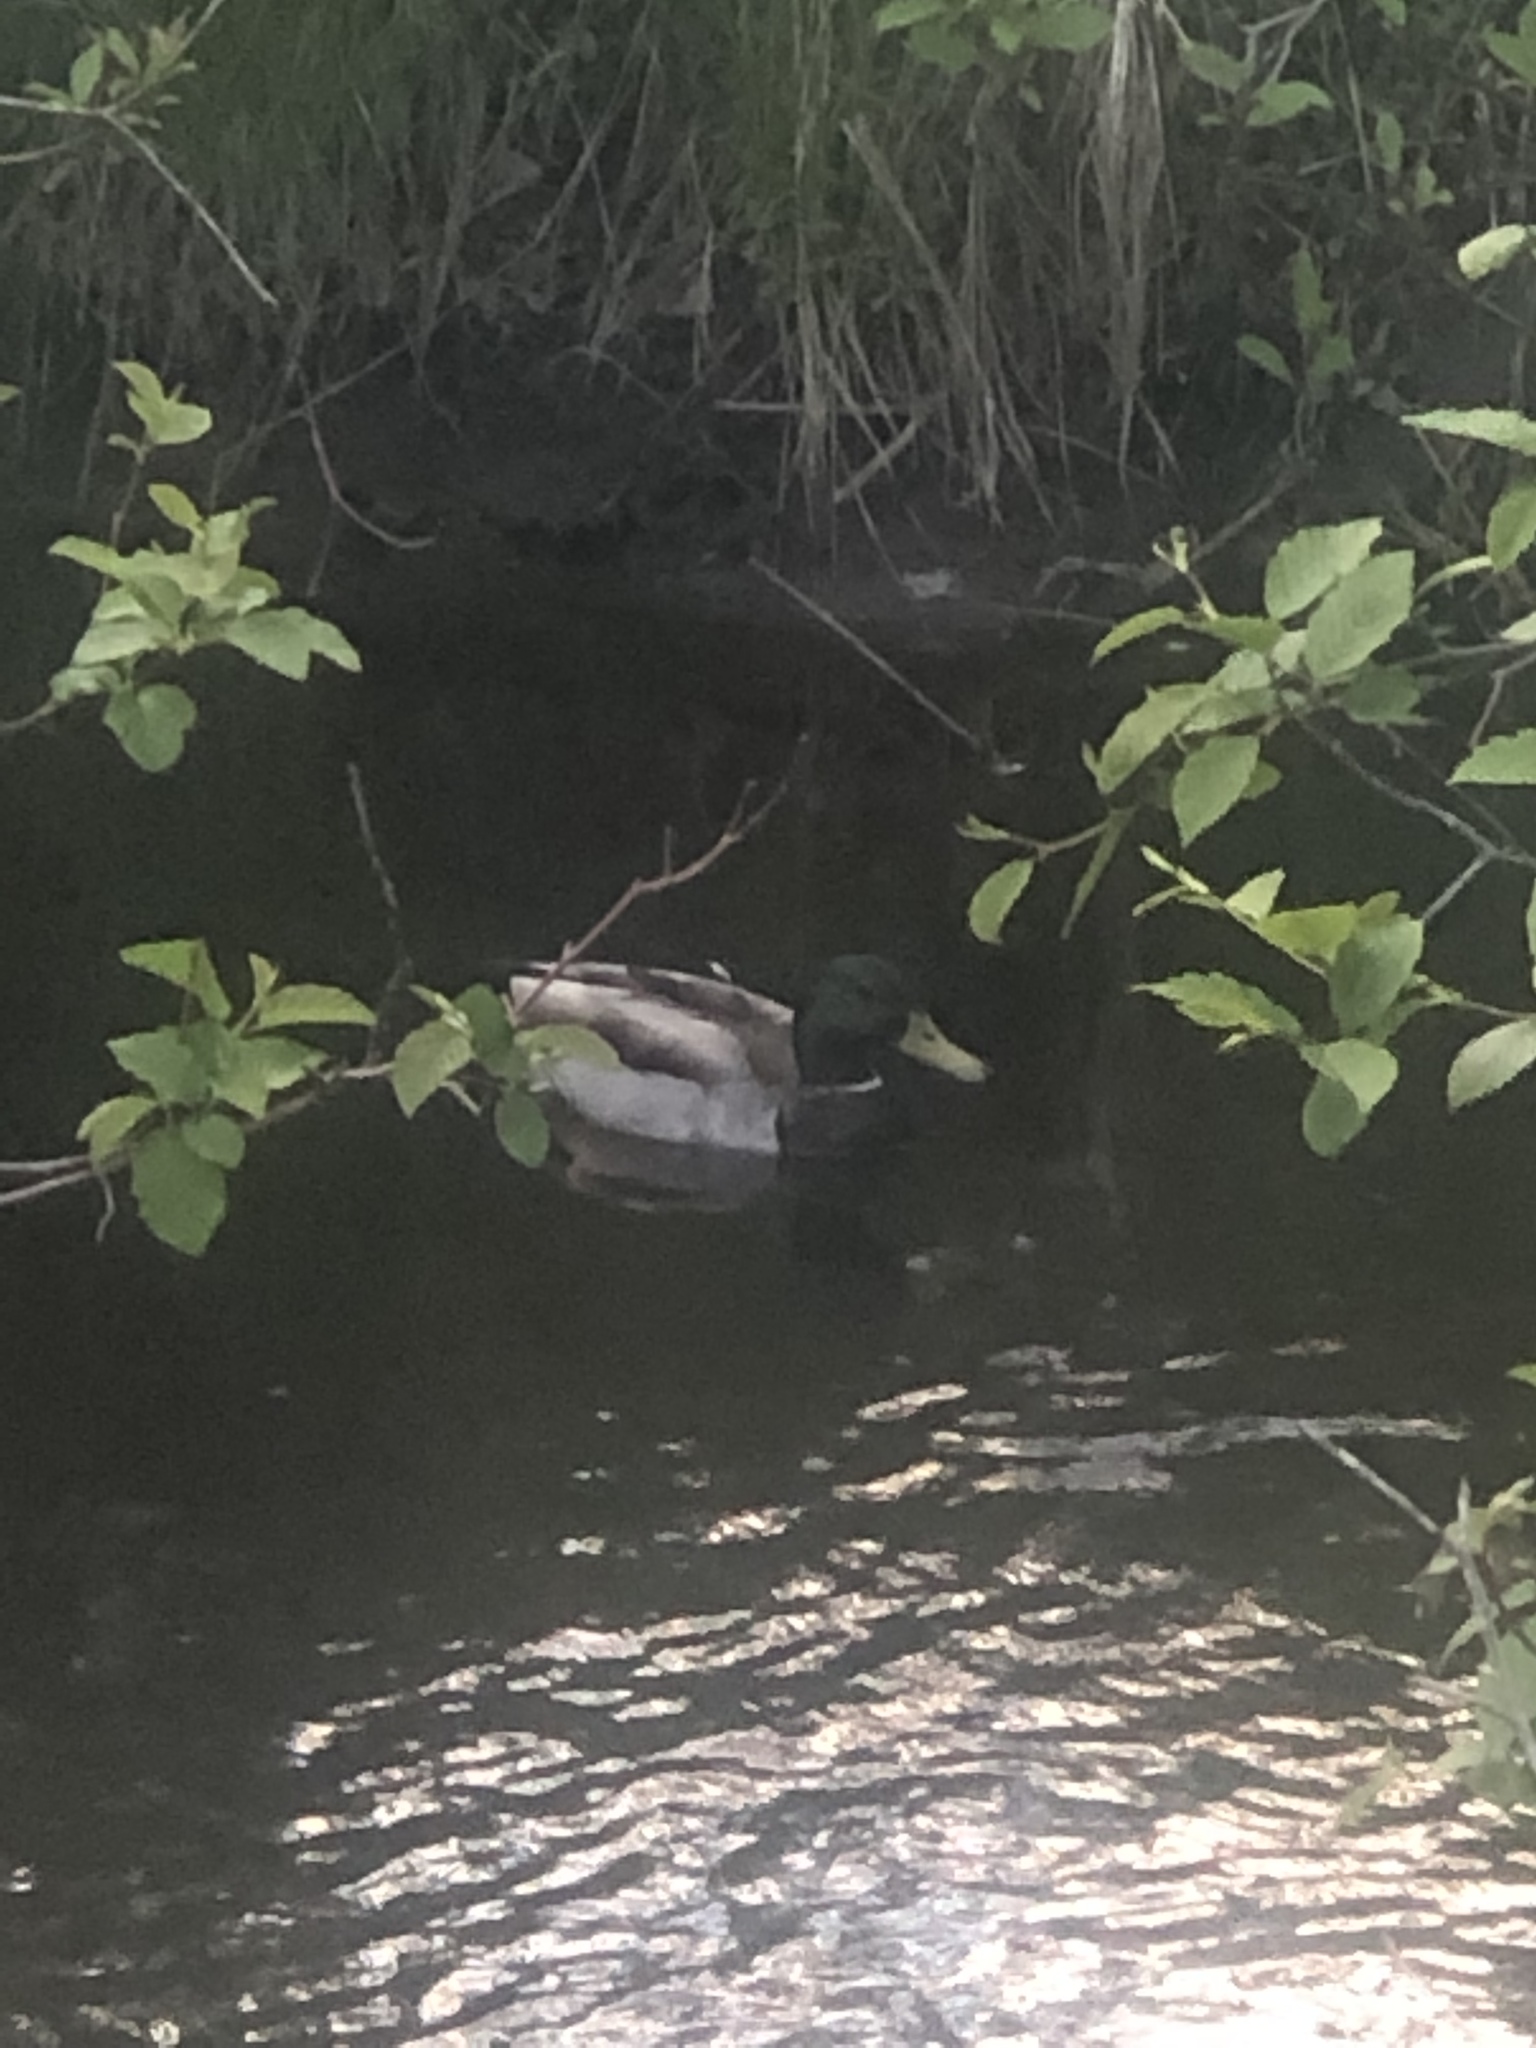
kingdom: Animalia
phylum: Chordata
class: Aves
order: Anseriformes
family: Anatidae
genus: Anas
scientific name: Anas platyrhynchos
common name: Mallard
